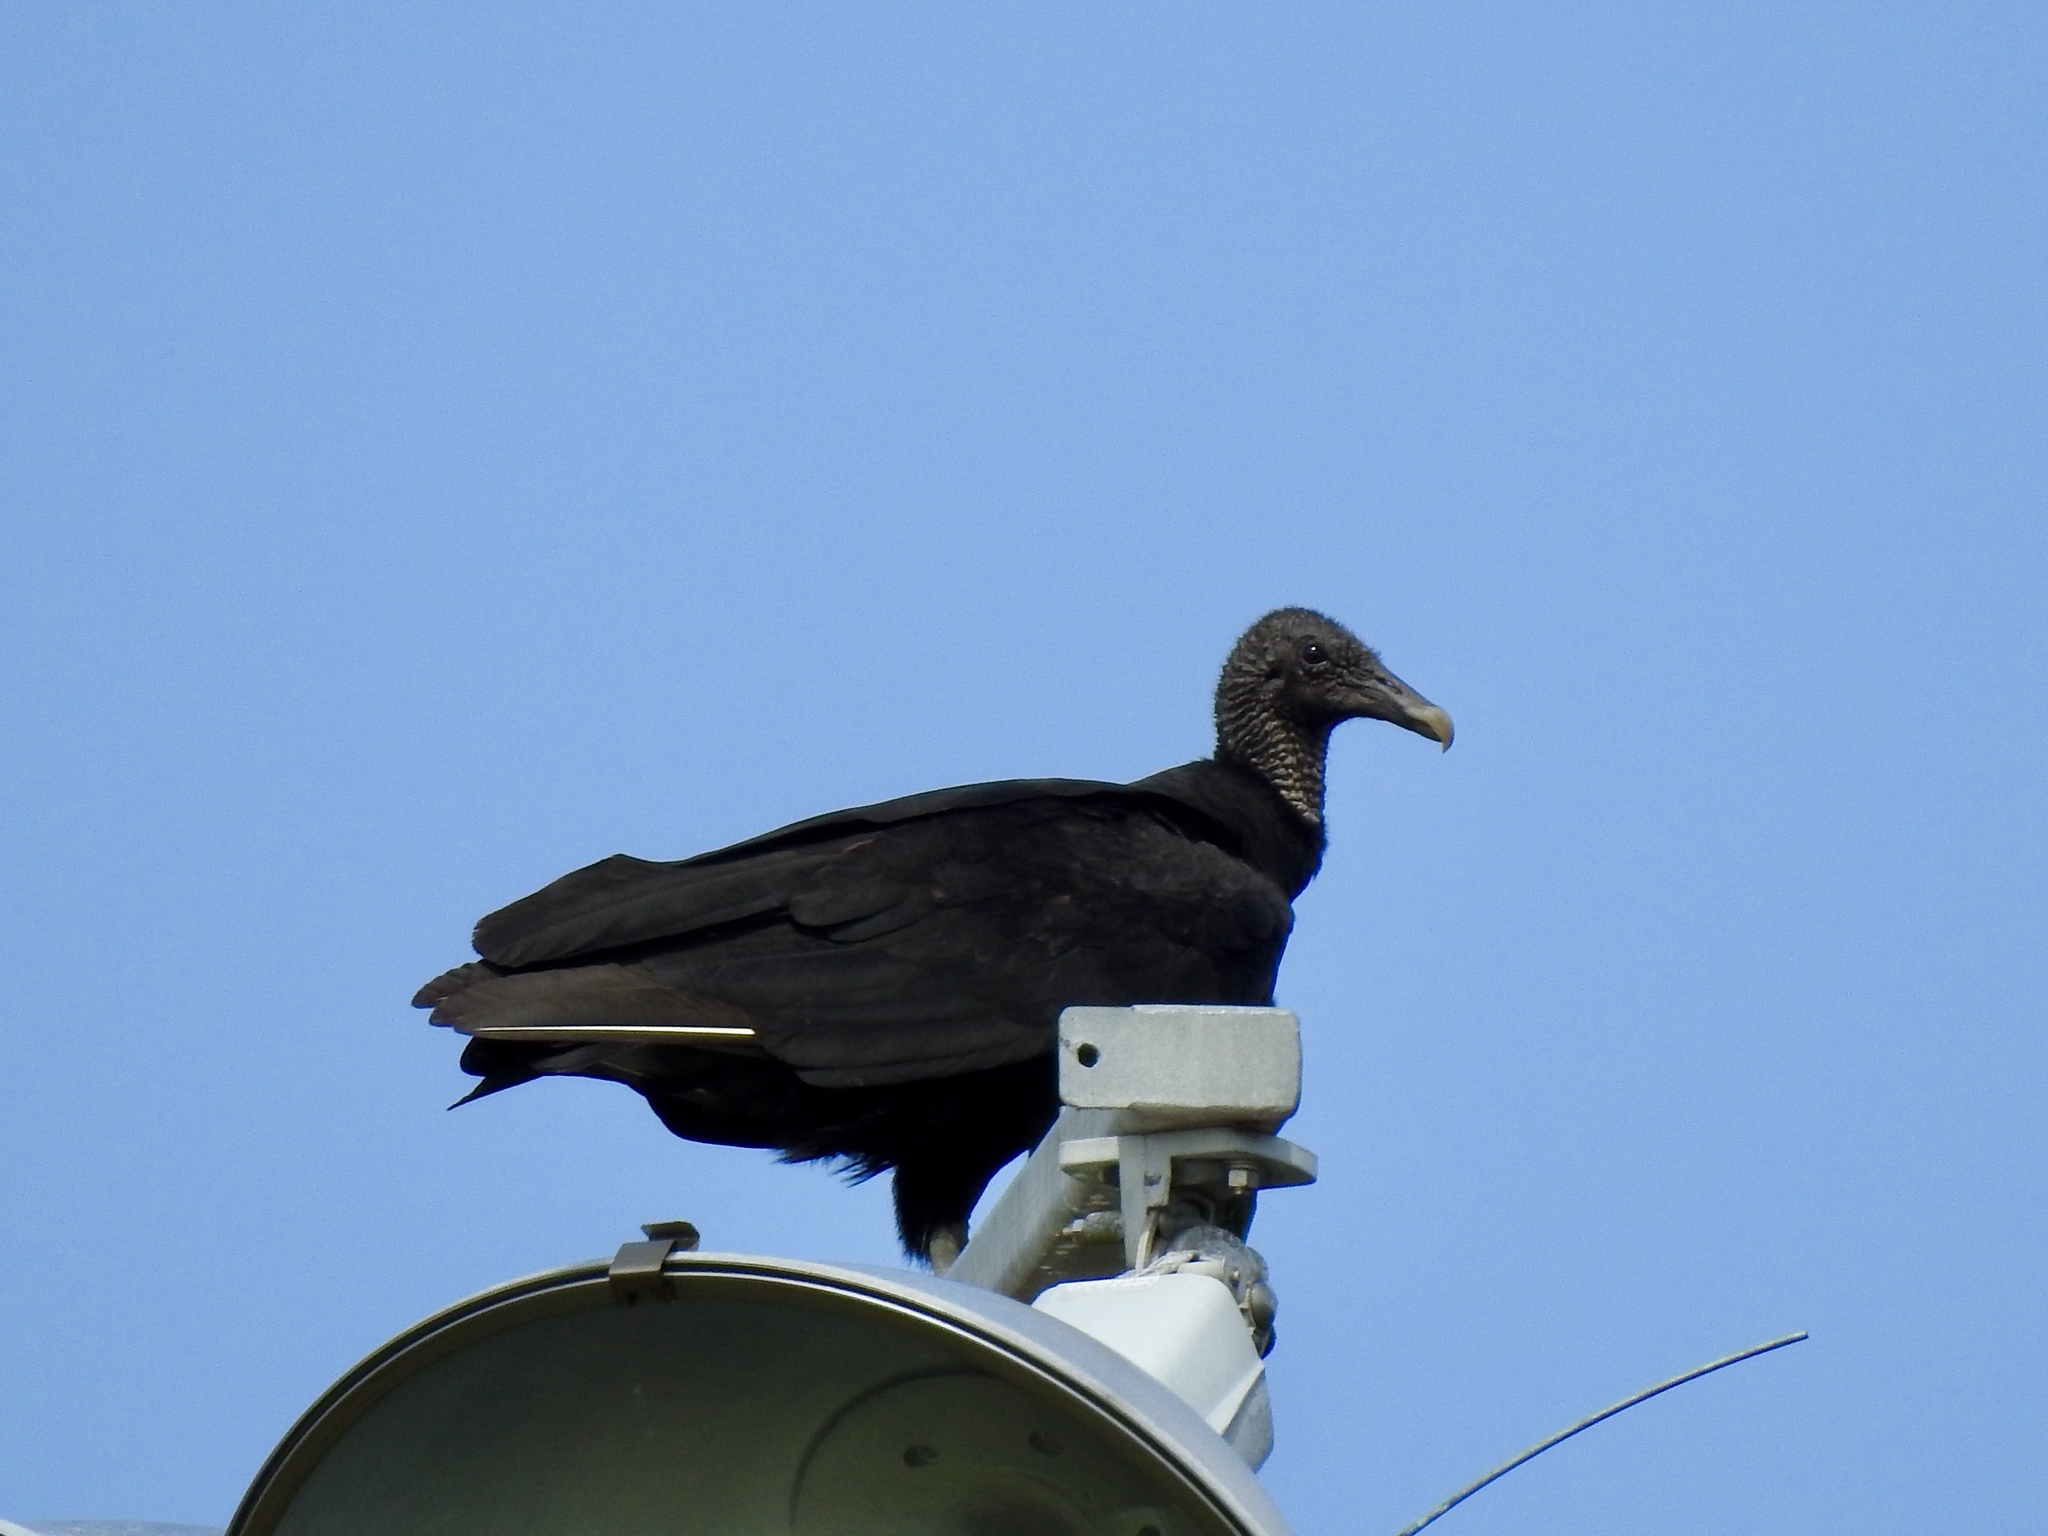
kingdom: Animalia
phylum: Chordata
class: Aves
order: Accipitriformes
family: Cathartidae
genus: Coragyps
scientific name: Coragyps atratus
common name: Black vulture
